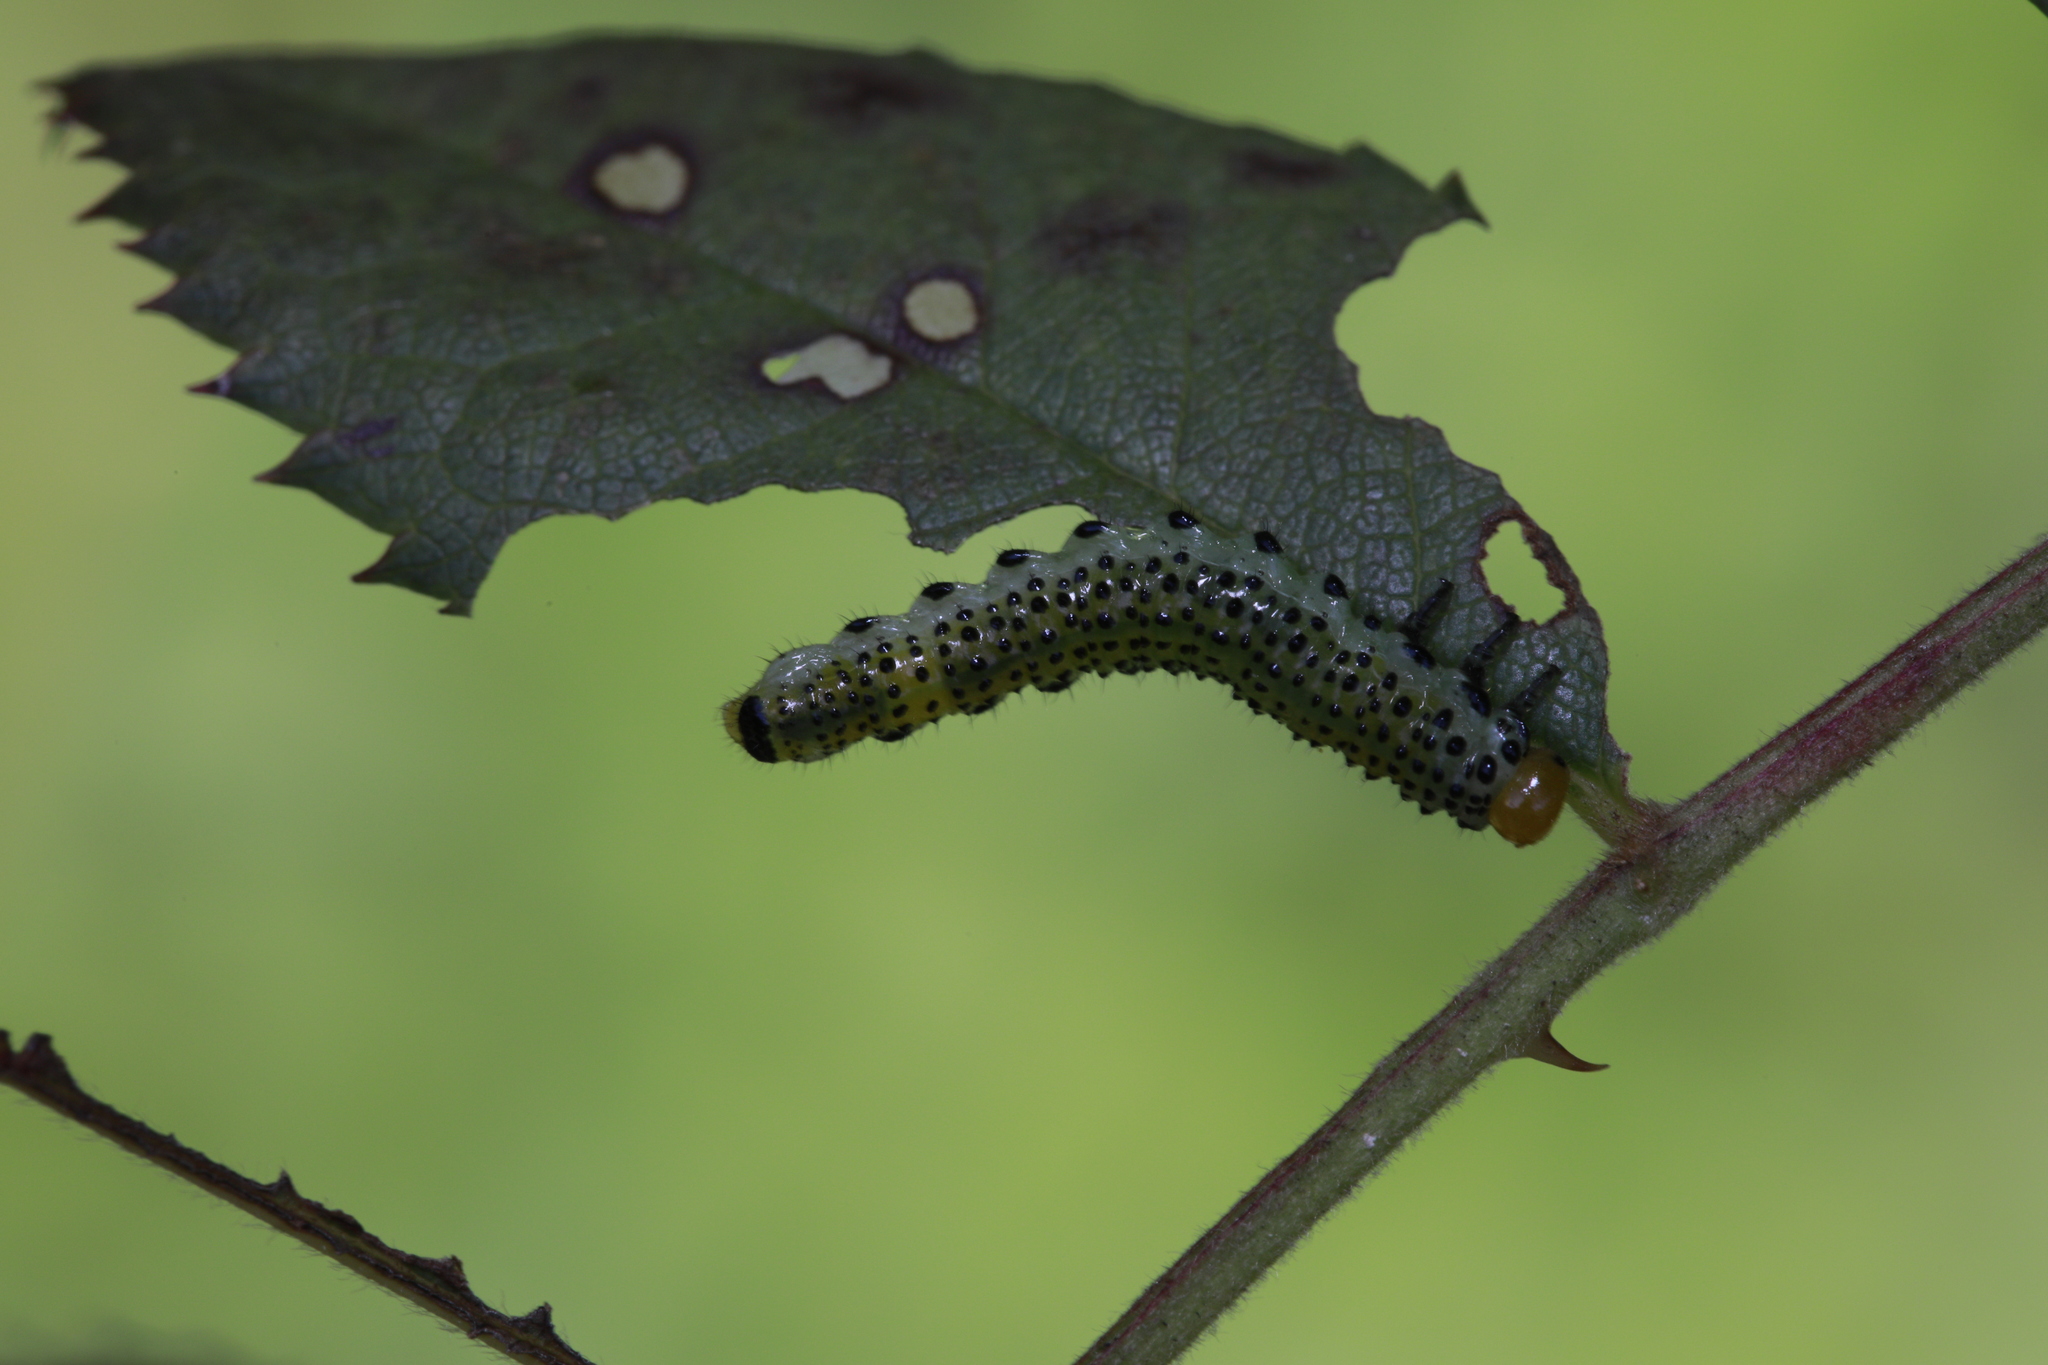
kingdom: Animalia
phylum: Arthropoda
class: Insecta
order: Hymenoptera
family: Argidae
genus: Arge
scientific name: Arge pagana
